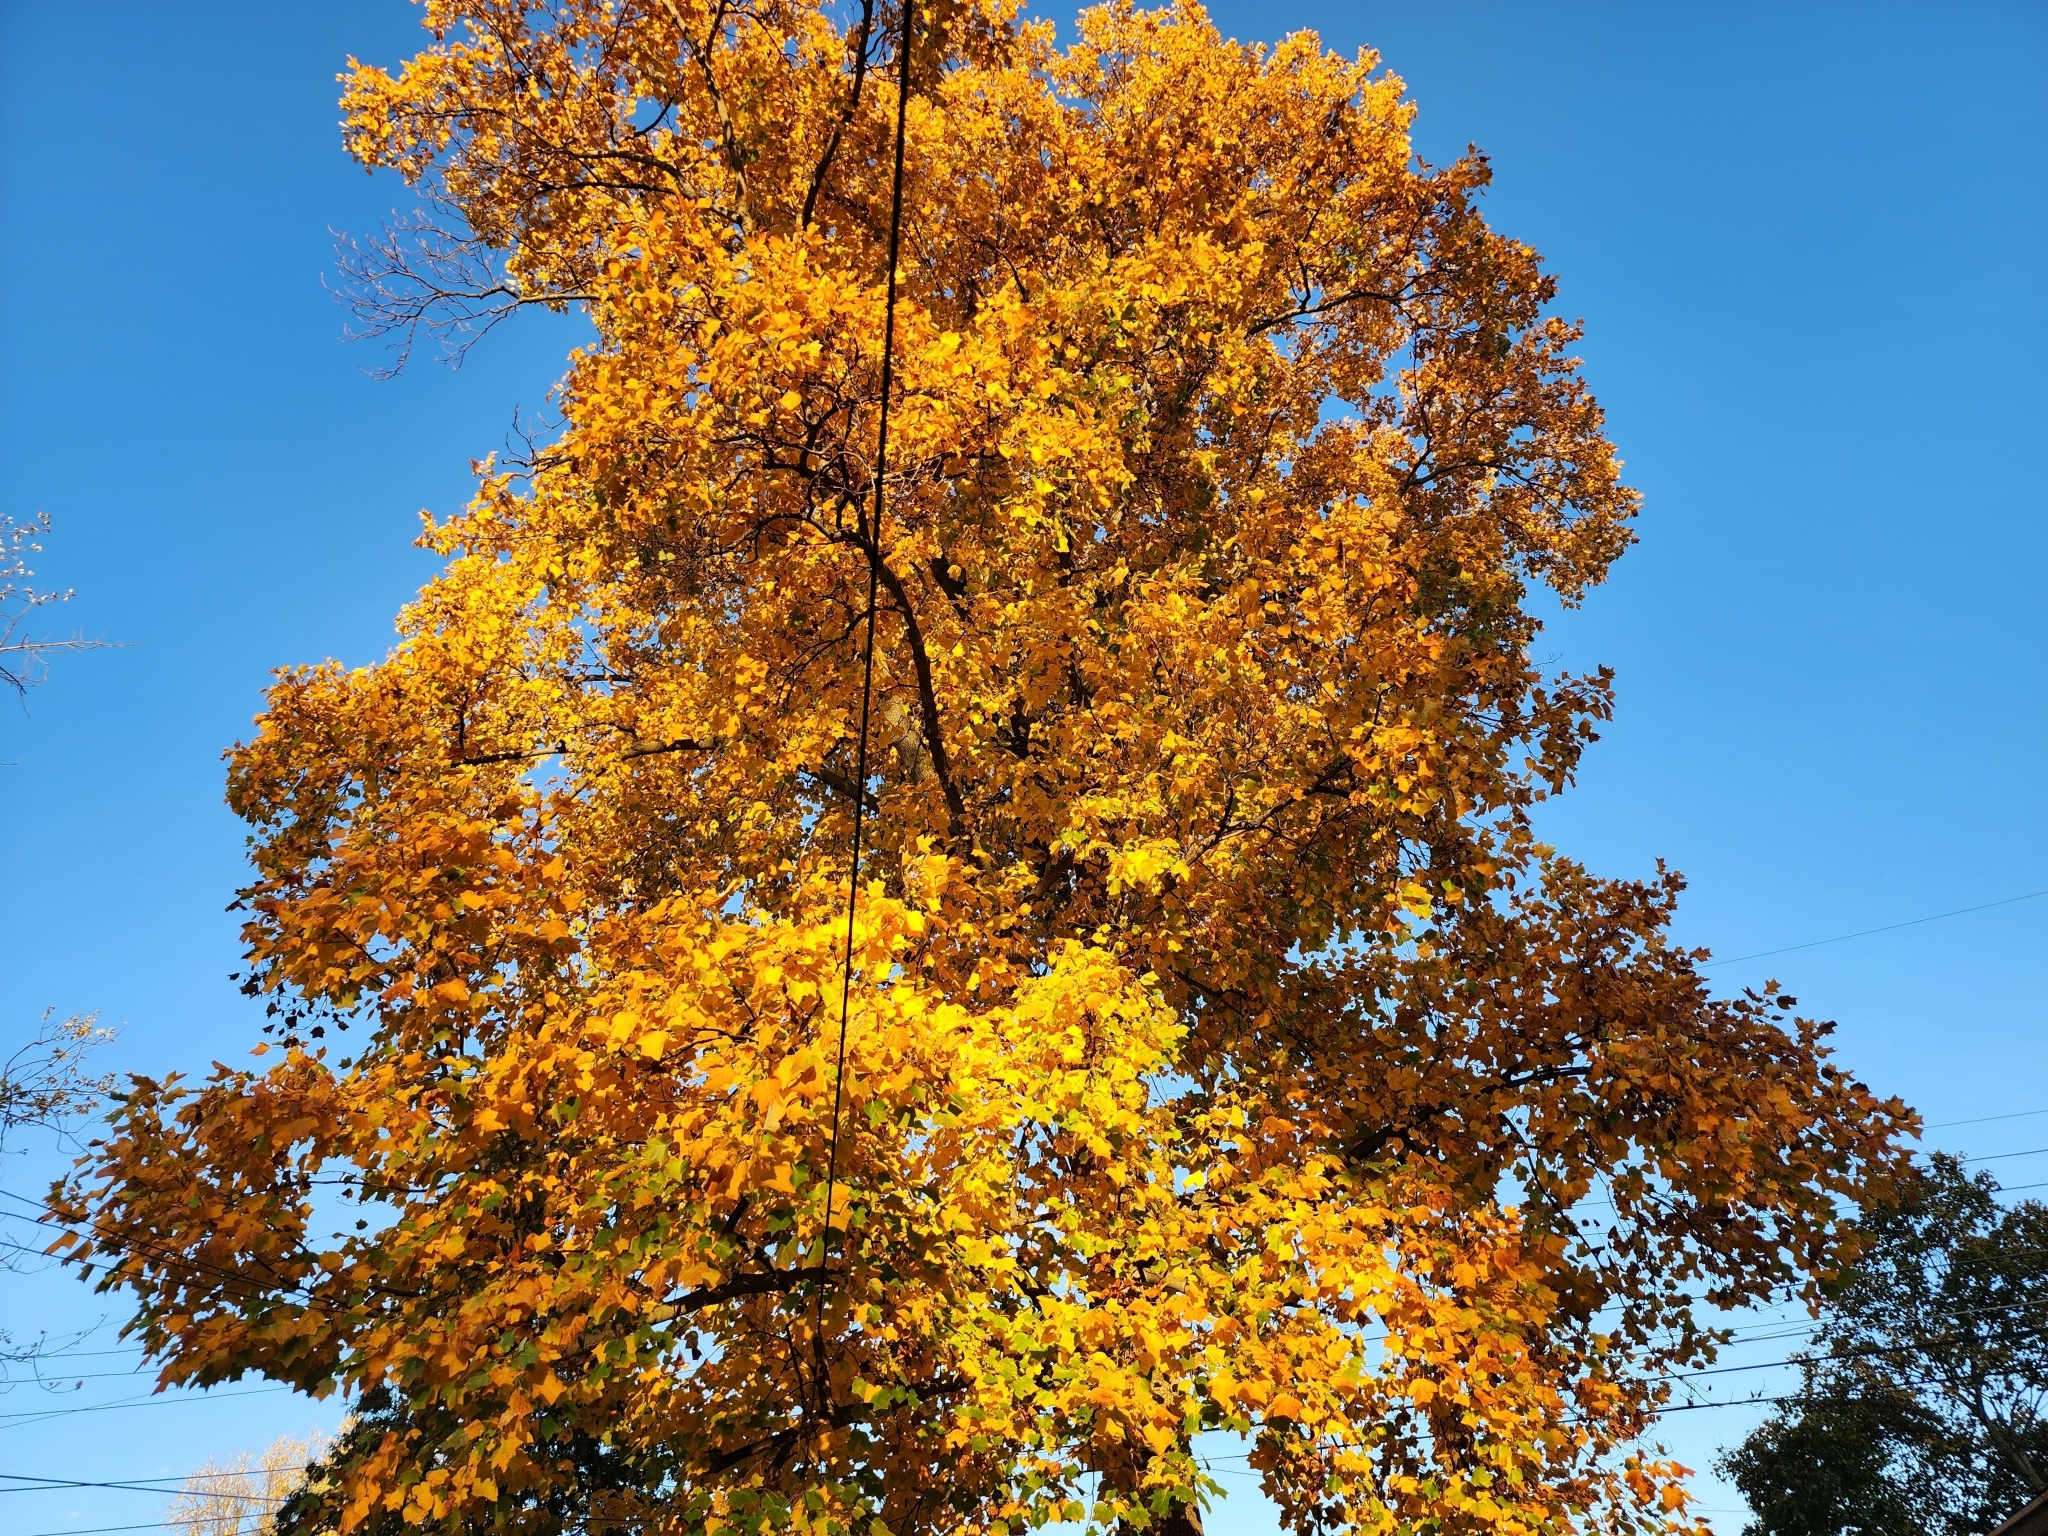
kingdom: Plantae
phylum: Tracheophyta
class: Magnoliopsida
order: Magnoliales
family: Magnoliaceae
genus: Liriodendron
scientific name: Liriodendron tulipifera
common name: Tulip tree
